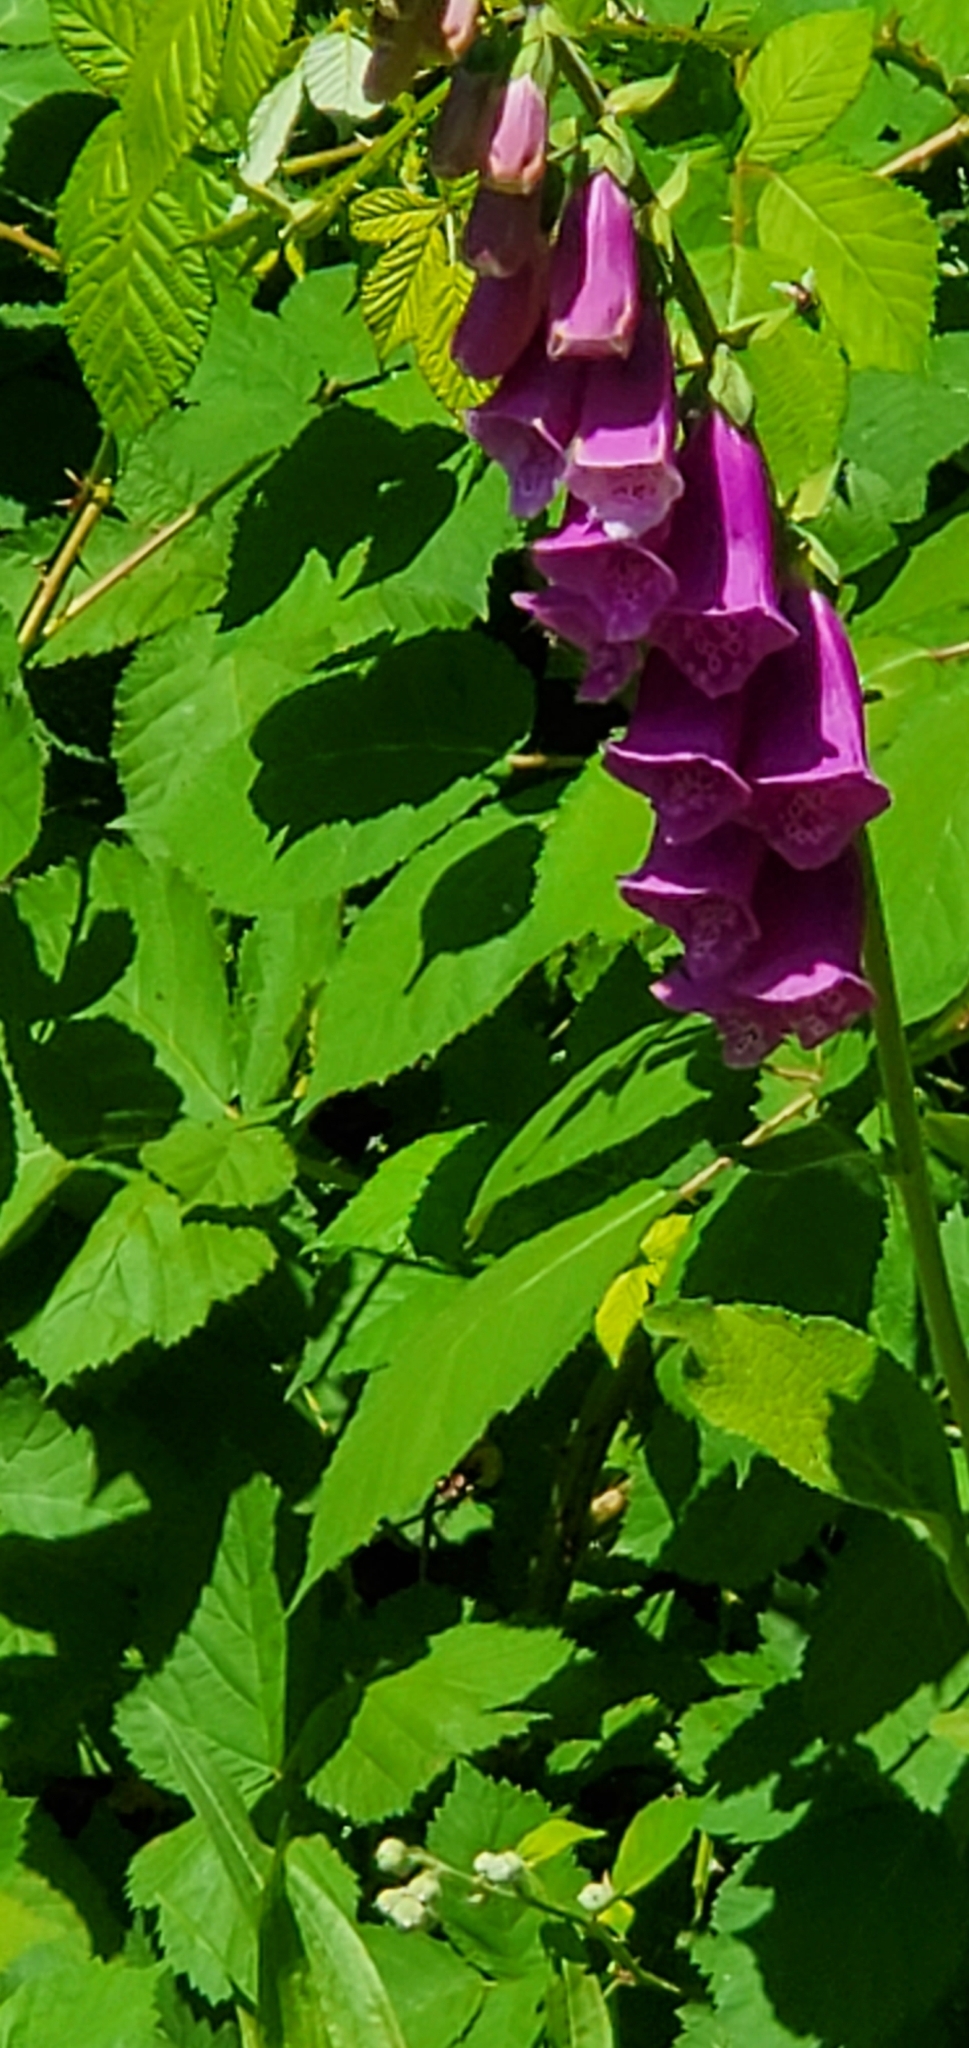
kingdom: Plantae
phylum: Tracheophyta
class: Magnoliopsida
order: Lamiales
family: Plantaginaceae
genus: Digitalis
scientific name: Digitalis purpurea
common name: Foxglove
